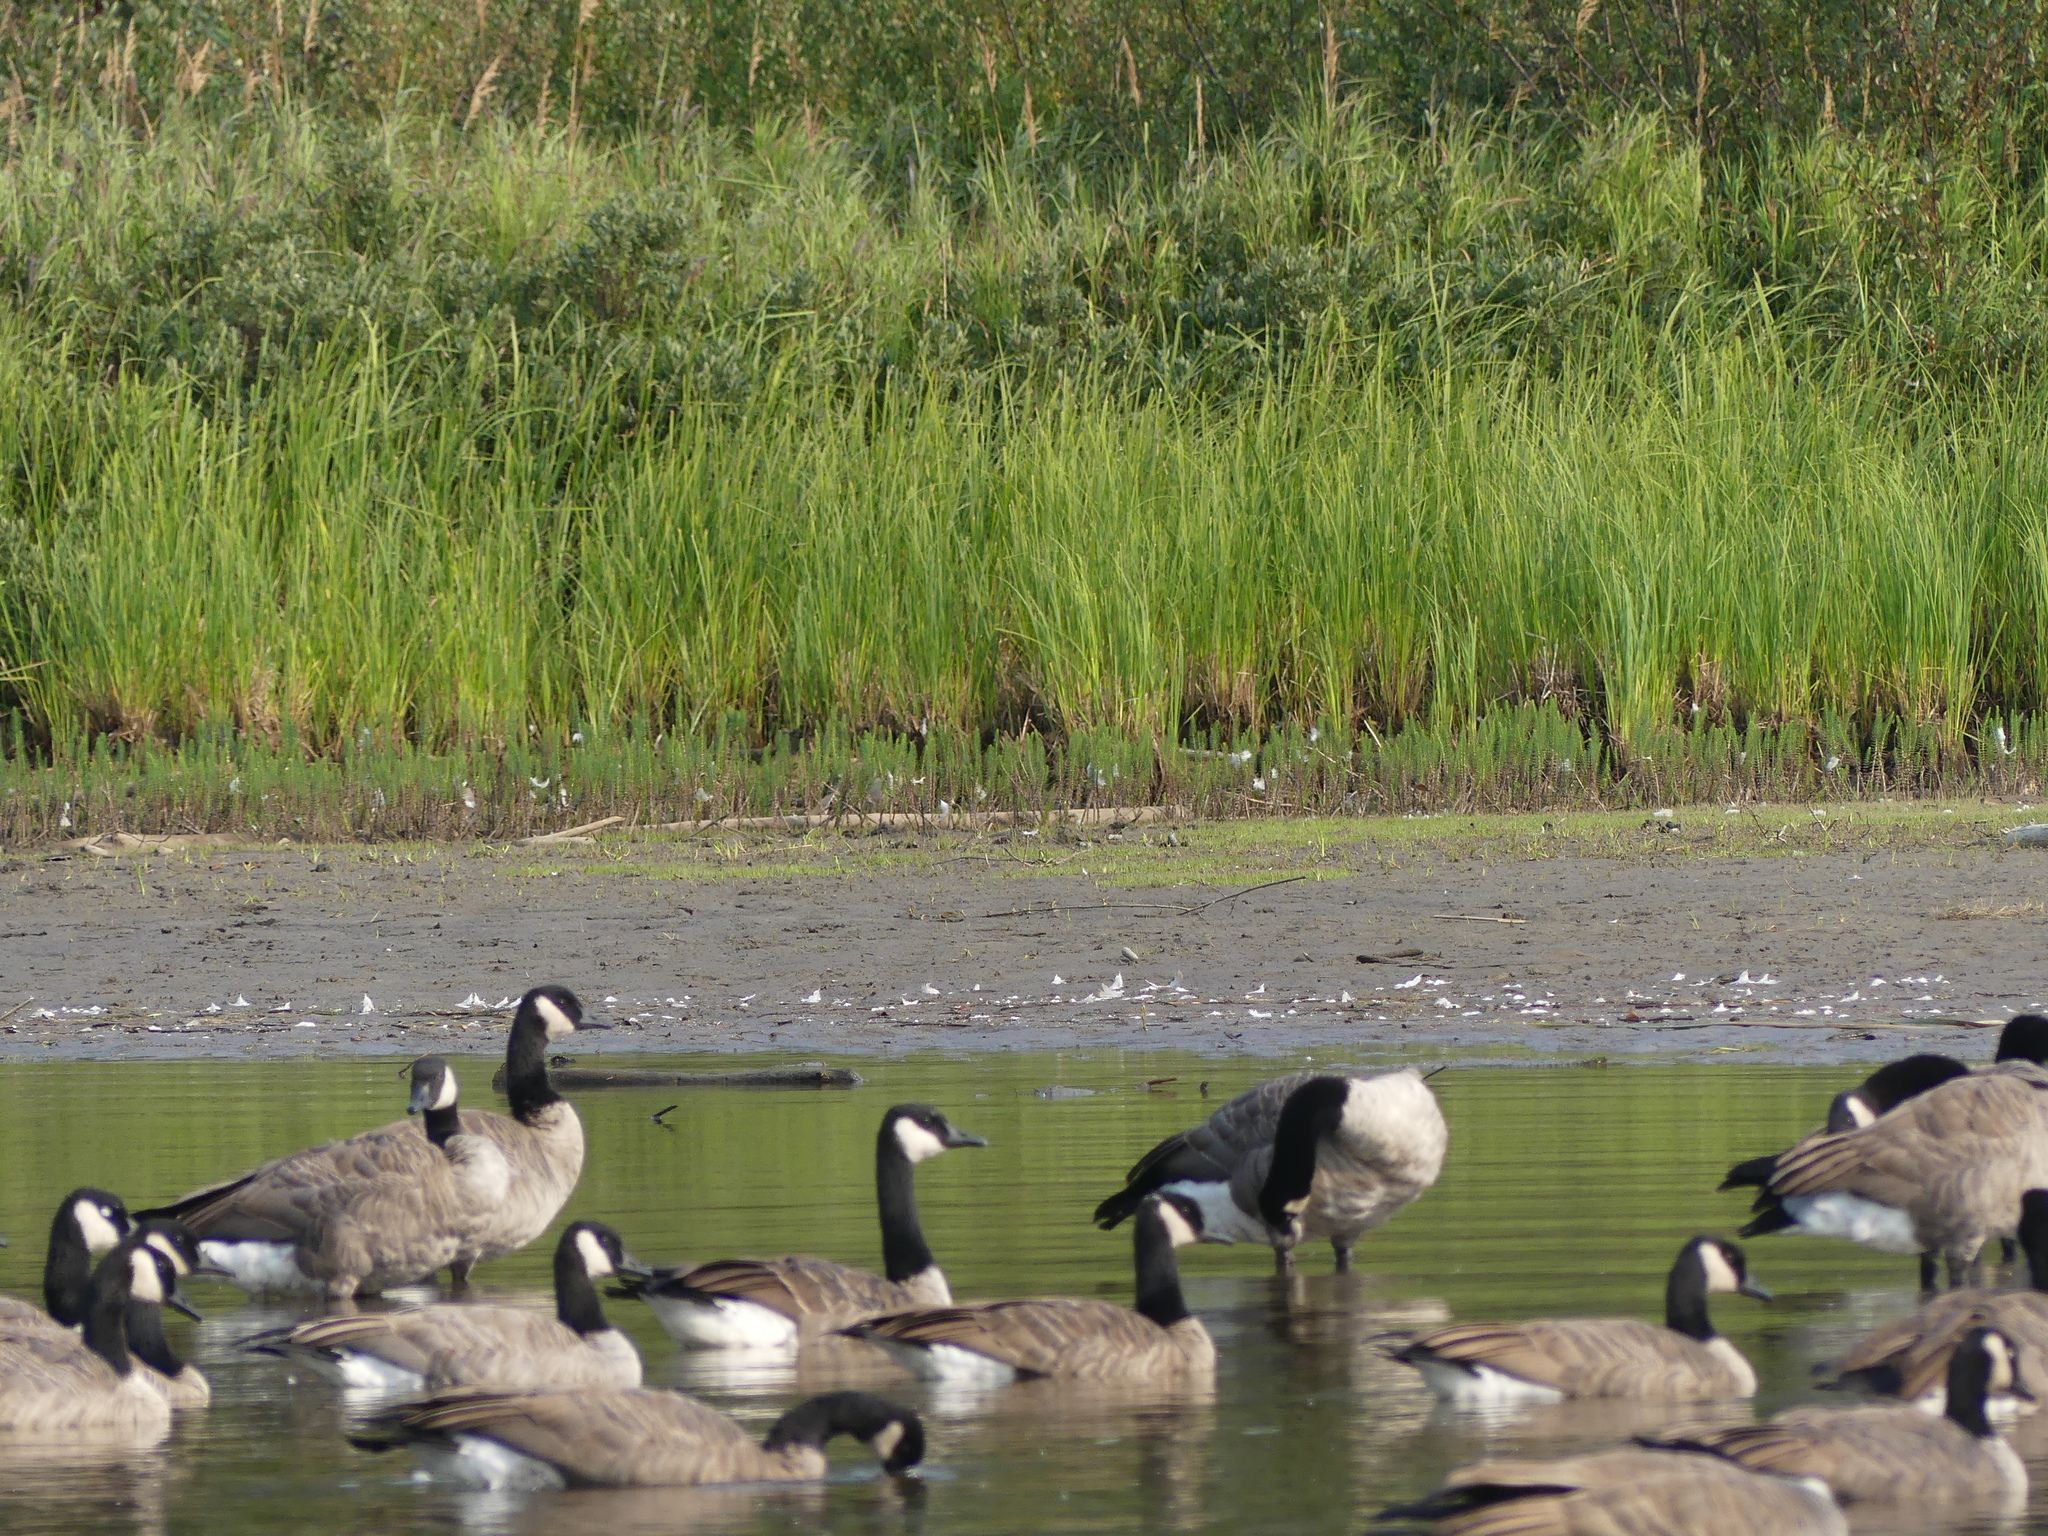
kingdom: Animalia
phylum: Chordata
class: Aves
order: Anseriformes
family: Anatidae
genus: Branta
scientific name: Branta canadensis
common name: Canada goose
